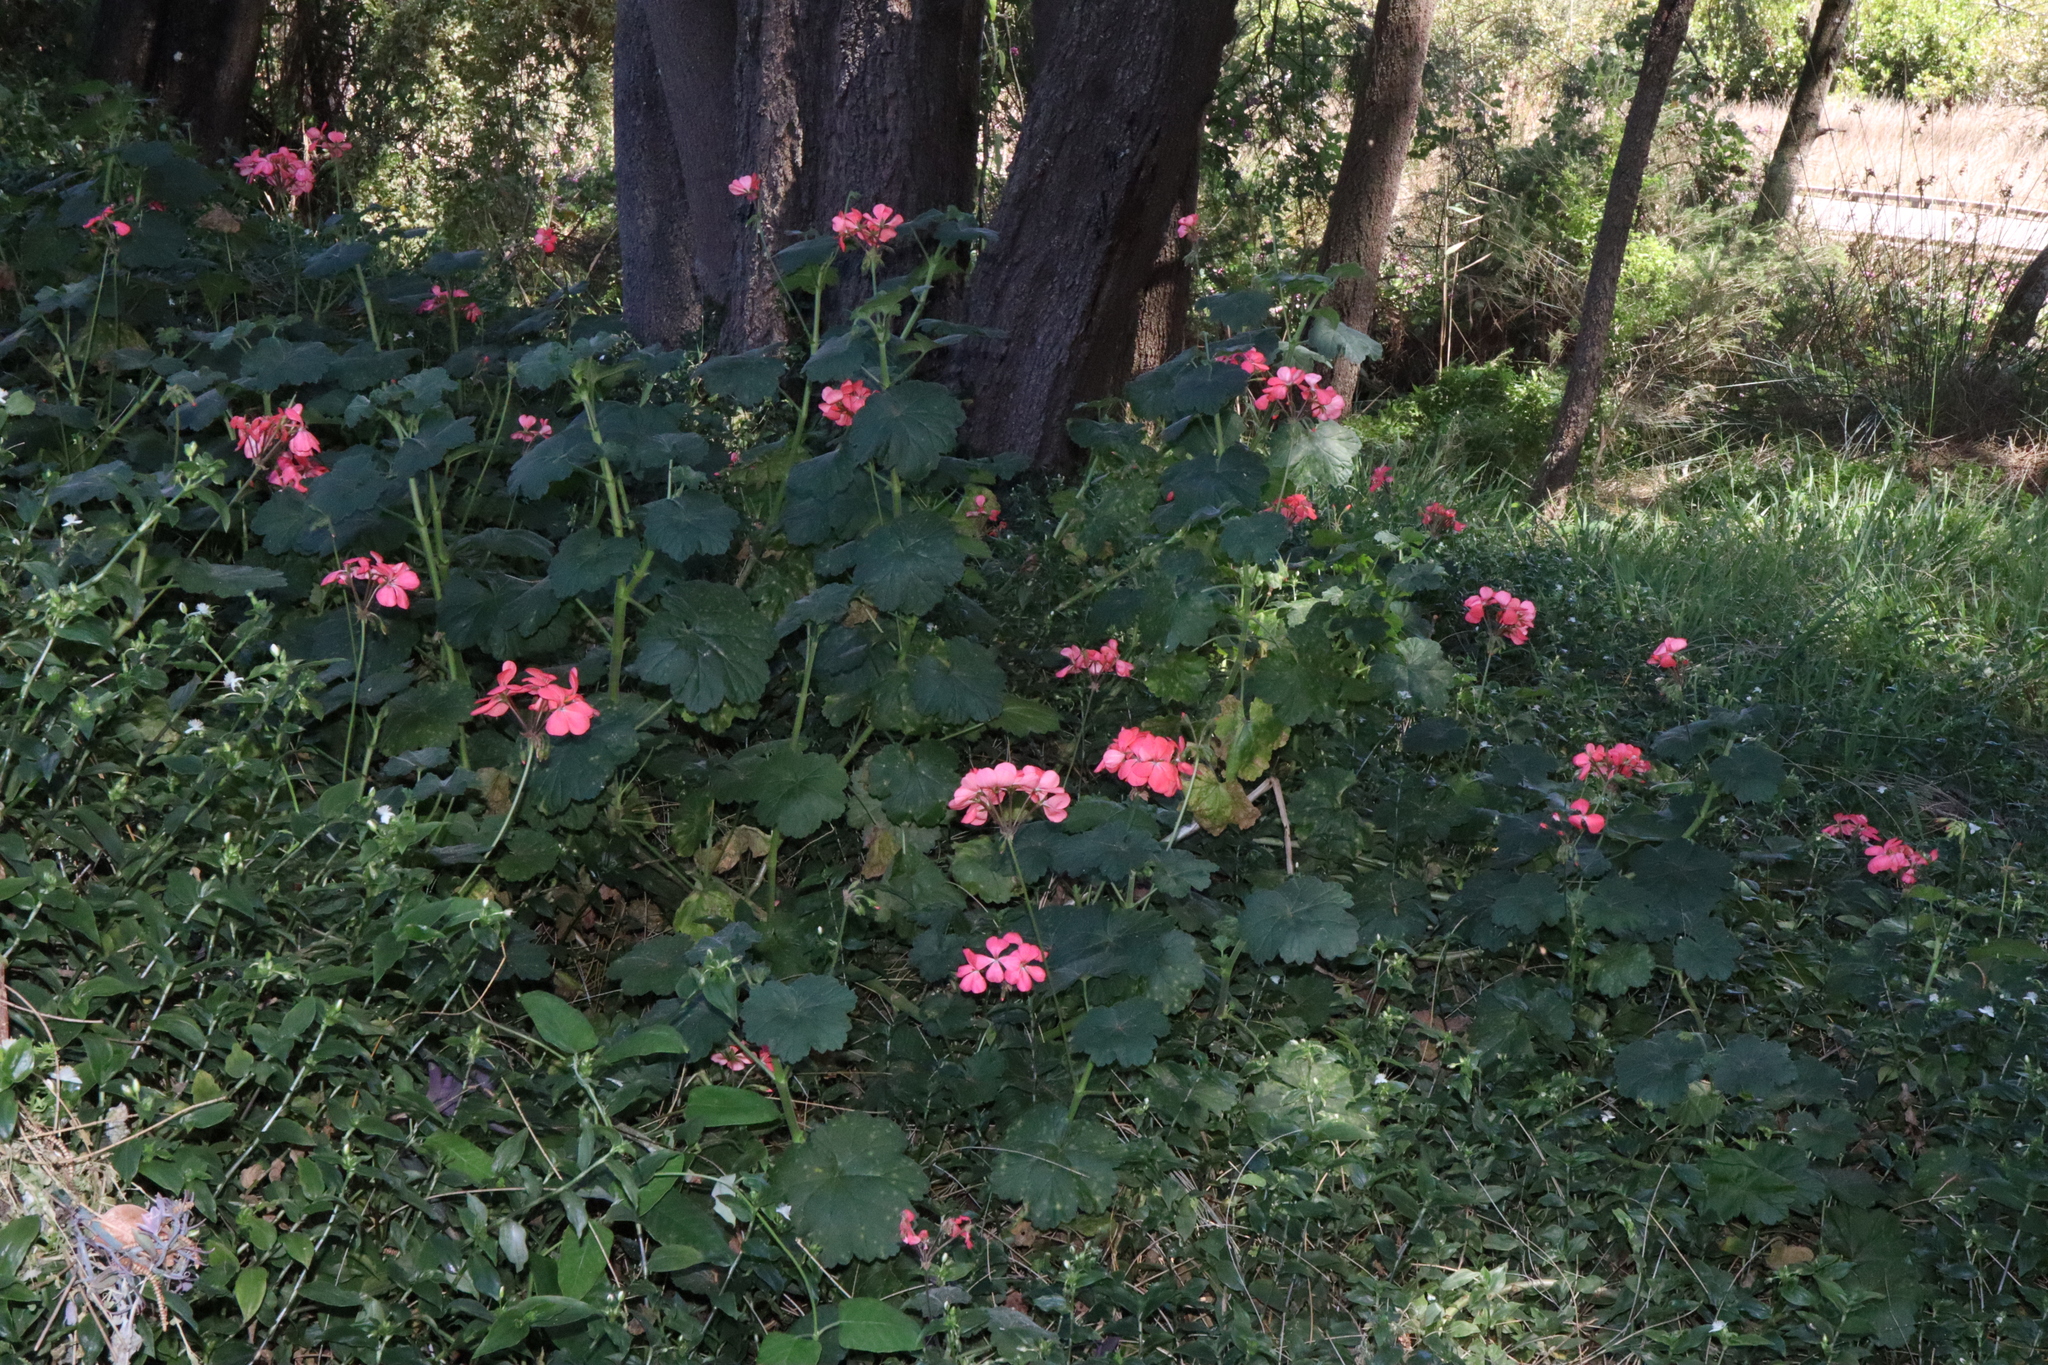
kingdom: Plantae
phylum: Tracheophyta
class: Magnoliopsida
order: Geraniales
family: Geraniaceae
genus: Pelargonium
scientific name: Pelargonium hybridum
